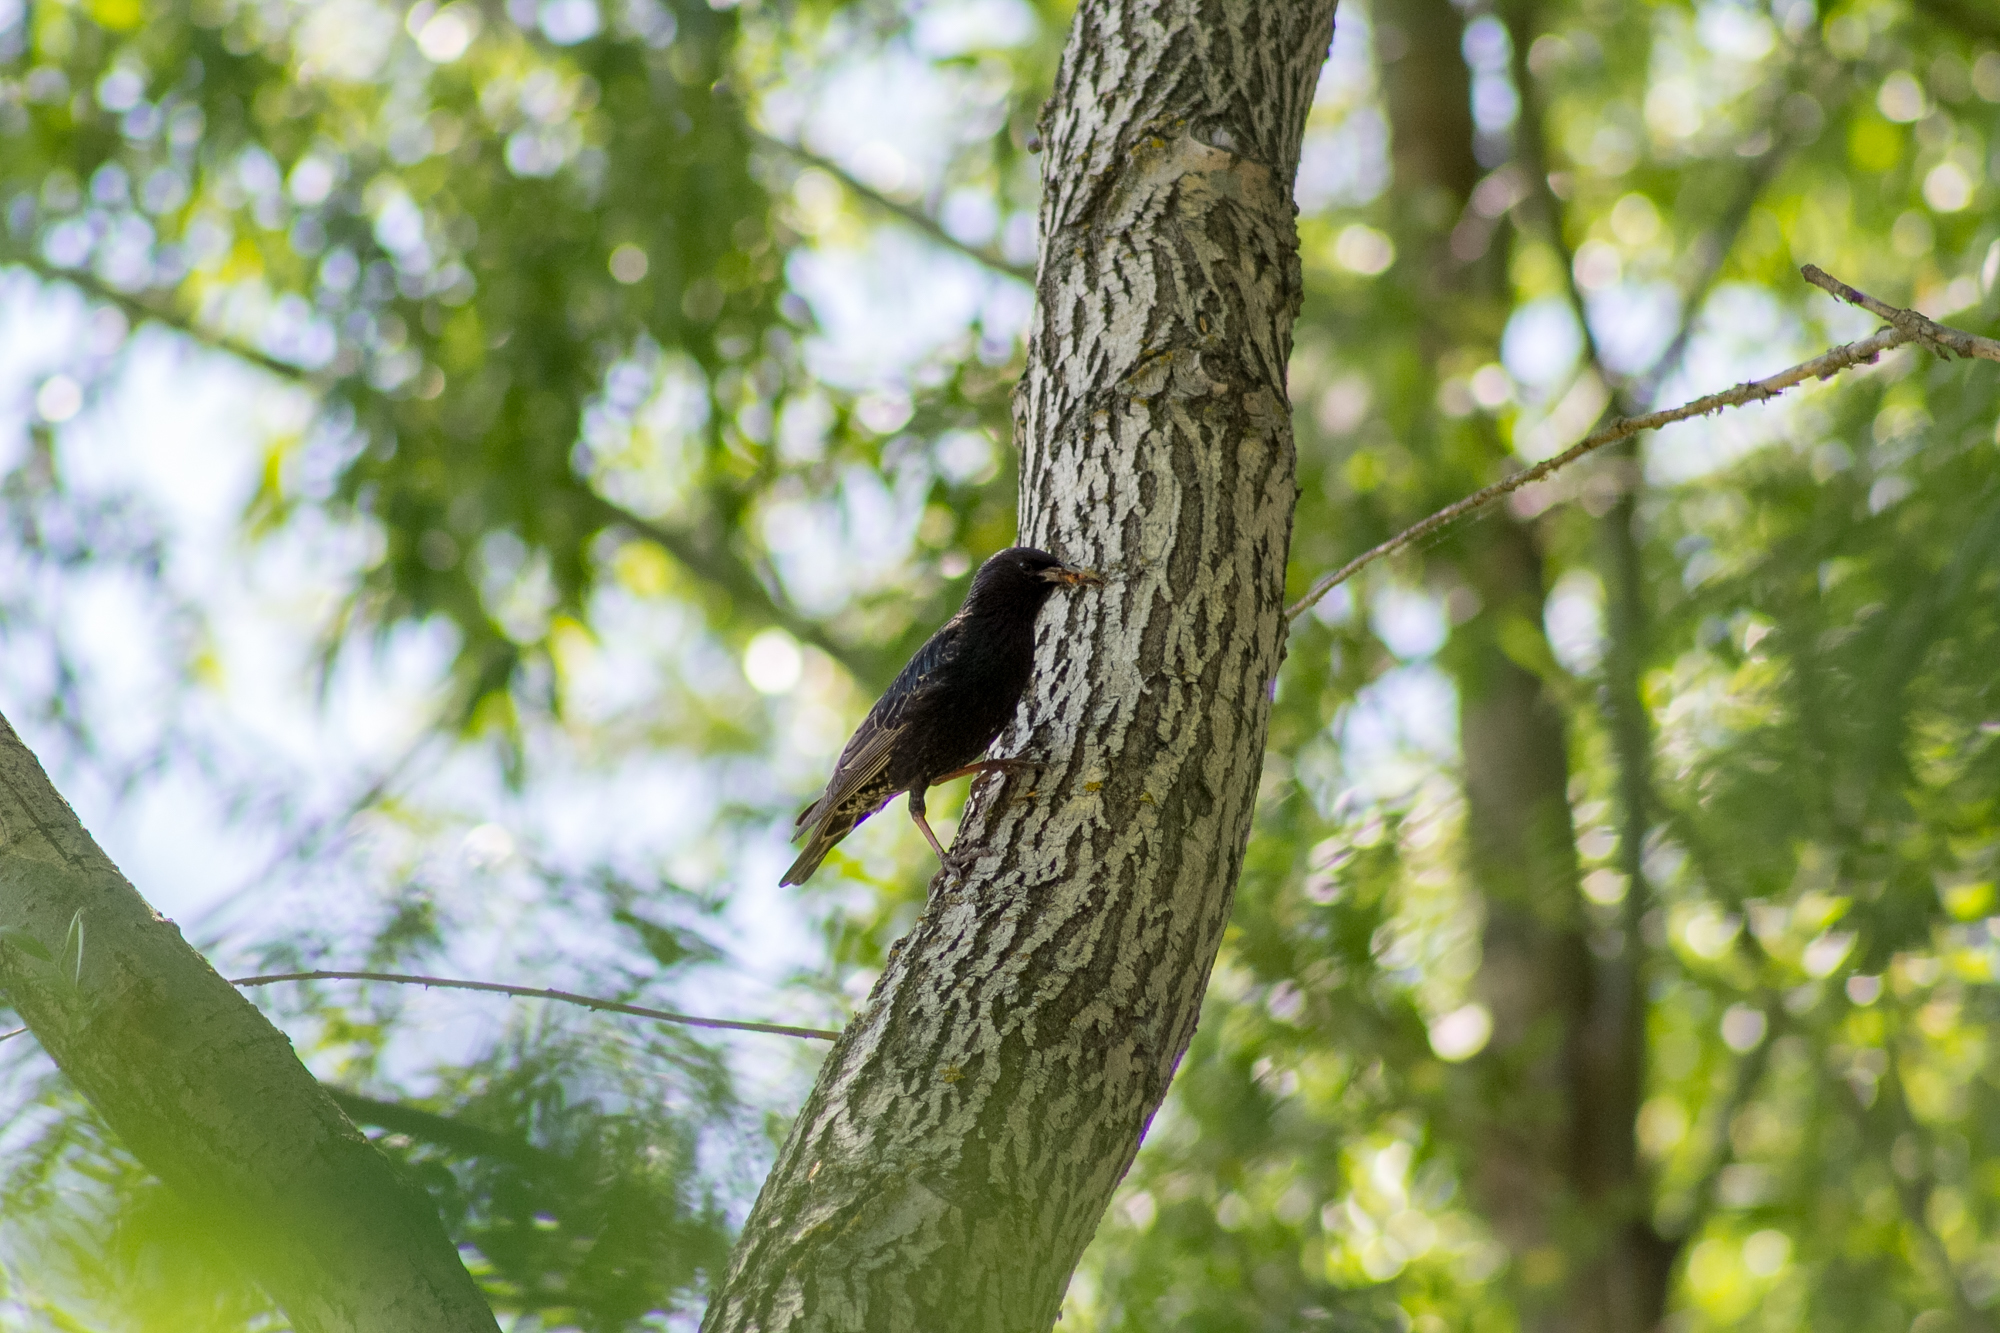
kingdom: Animalia
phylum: Chordata
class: Aves
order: Passeriformes
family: Sturnidae
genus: Sturnus
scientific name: Sturnus vulgaris
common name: Common starling
